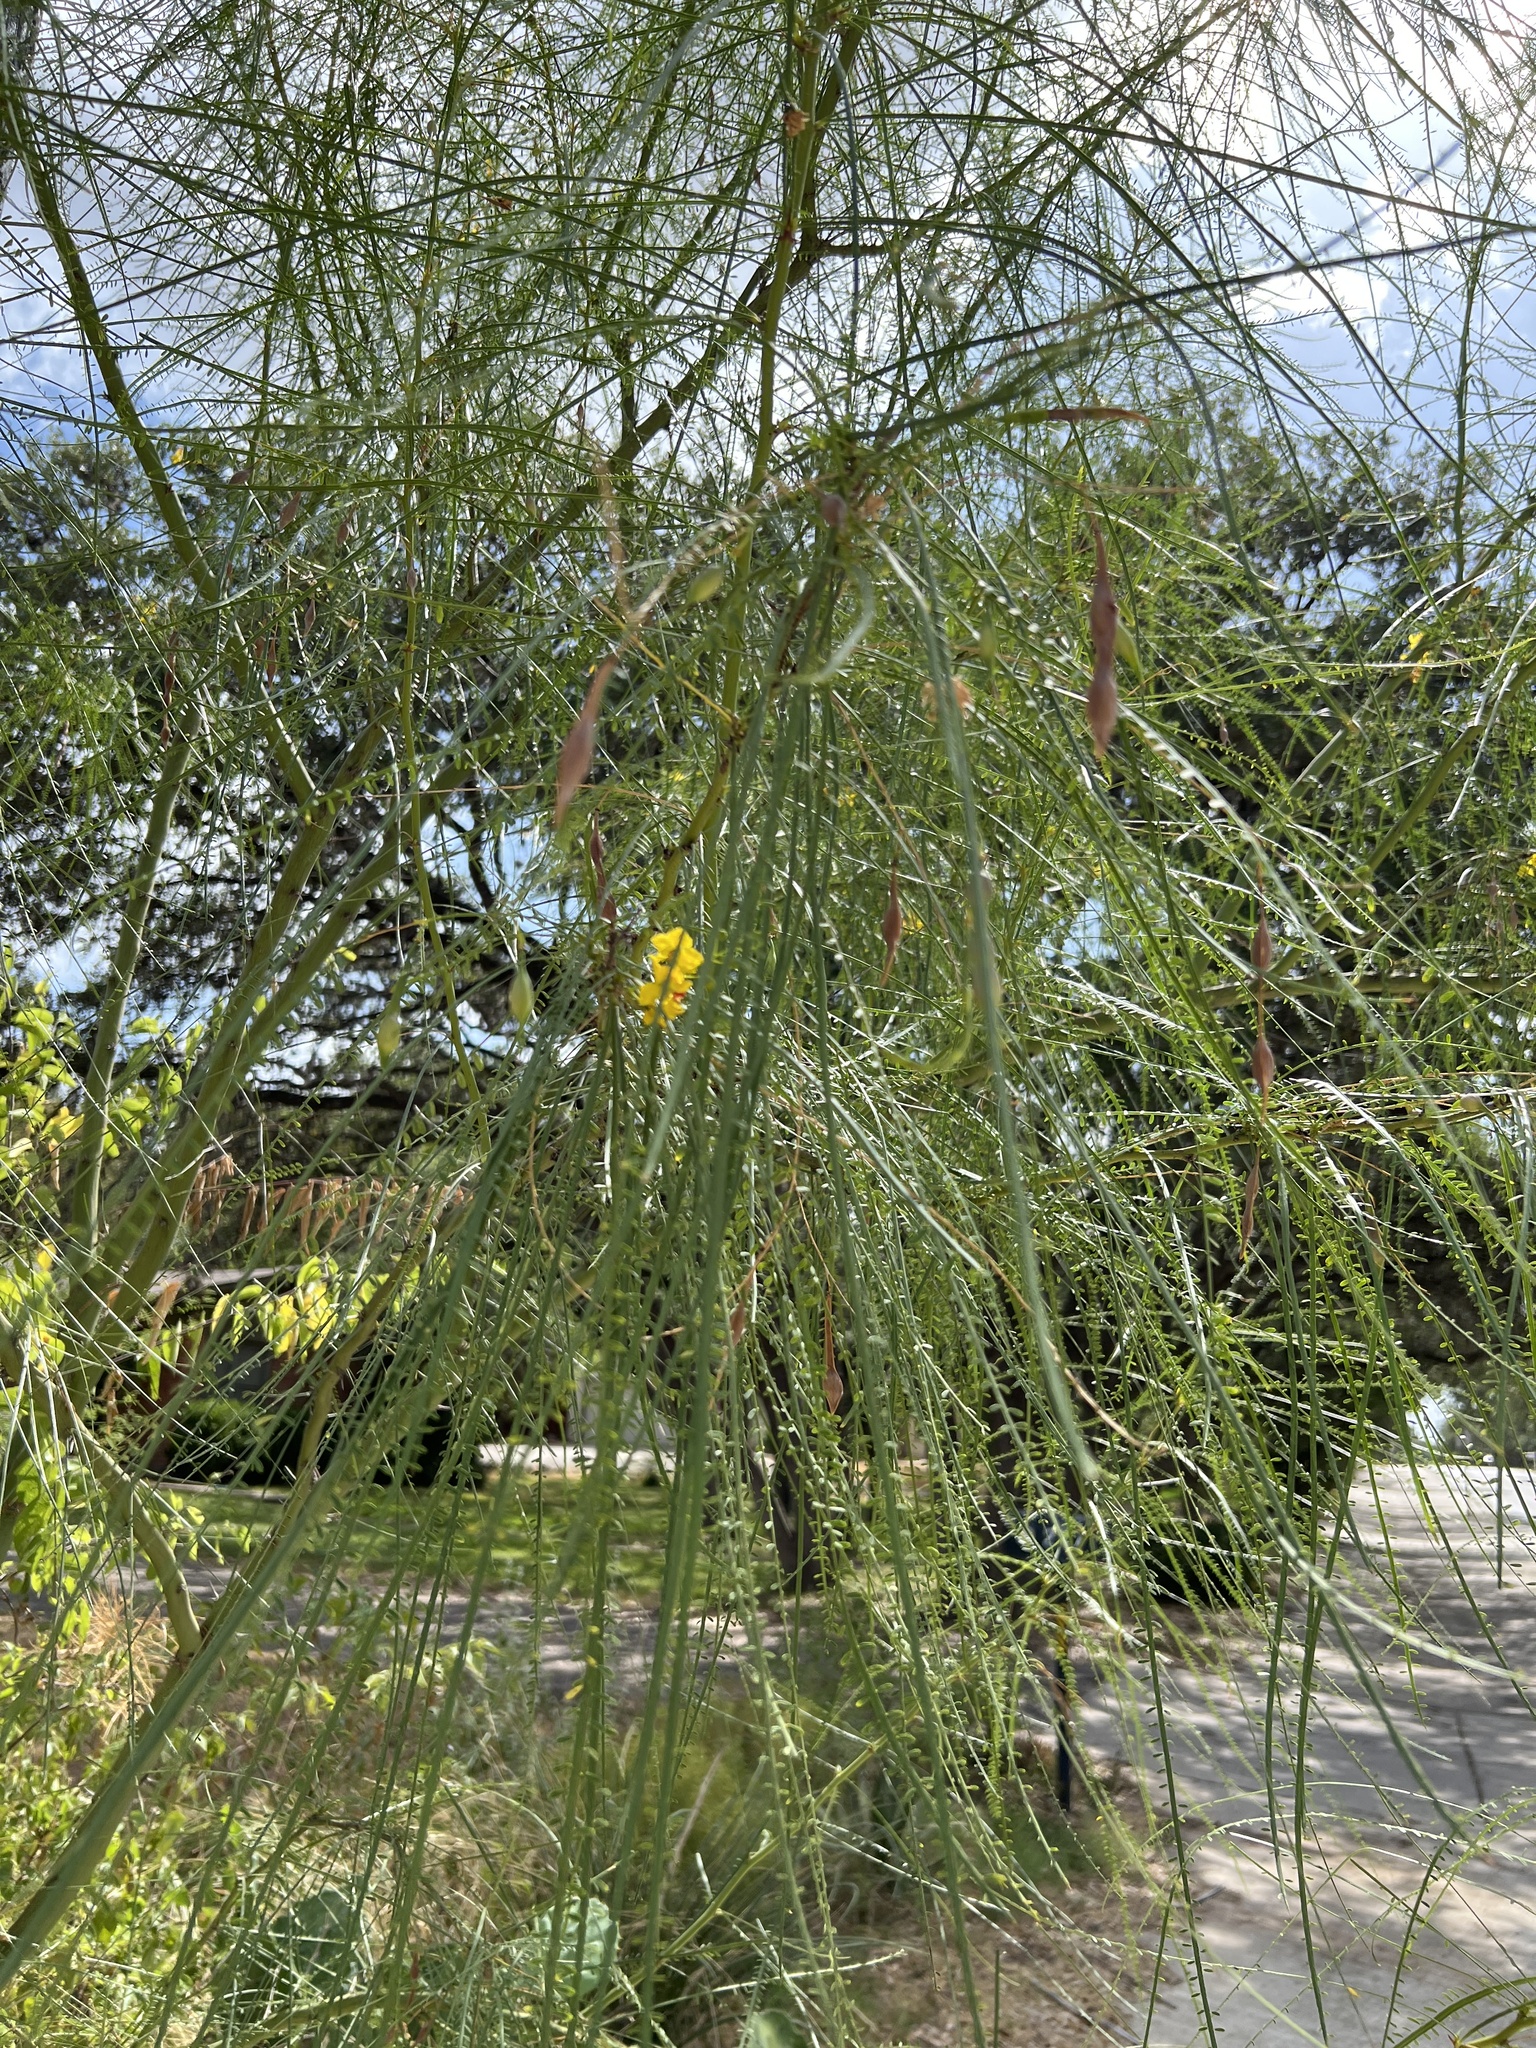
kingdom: Plantae
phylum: Tracheophyta
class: Magnoliopsida
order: Fabales
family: Fabaceae
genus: Parkinsonia
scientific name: Parkinsonia aculeata
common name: Jerusalem thorn
